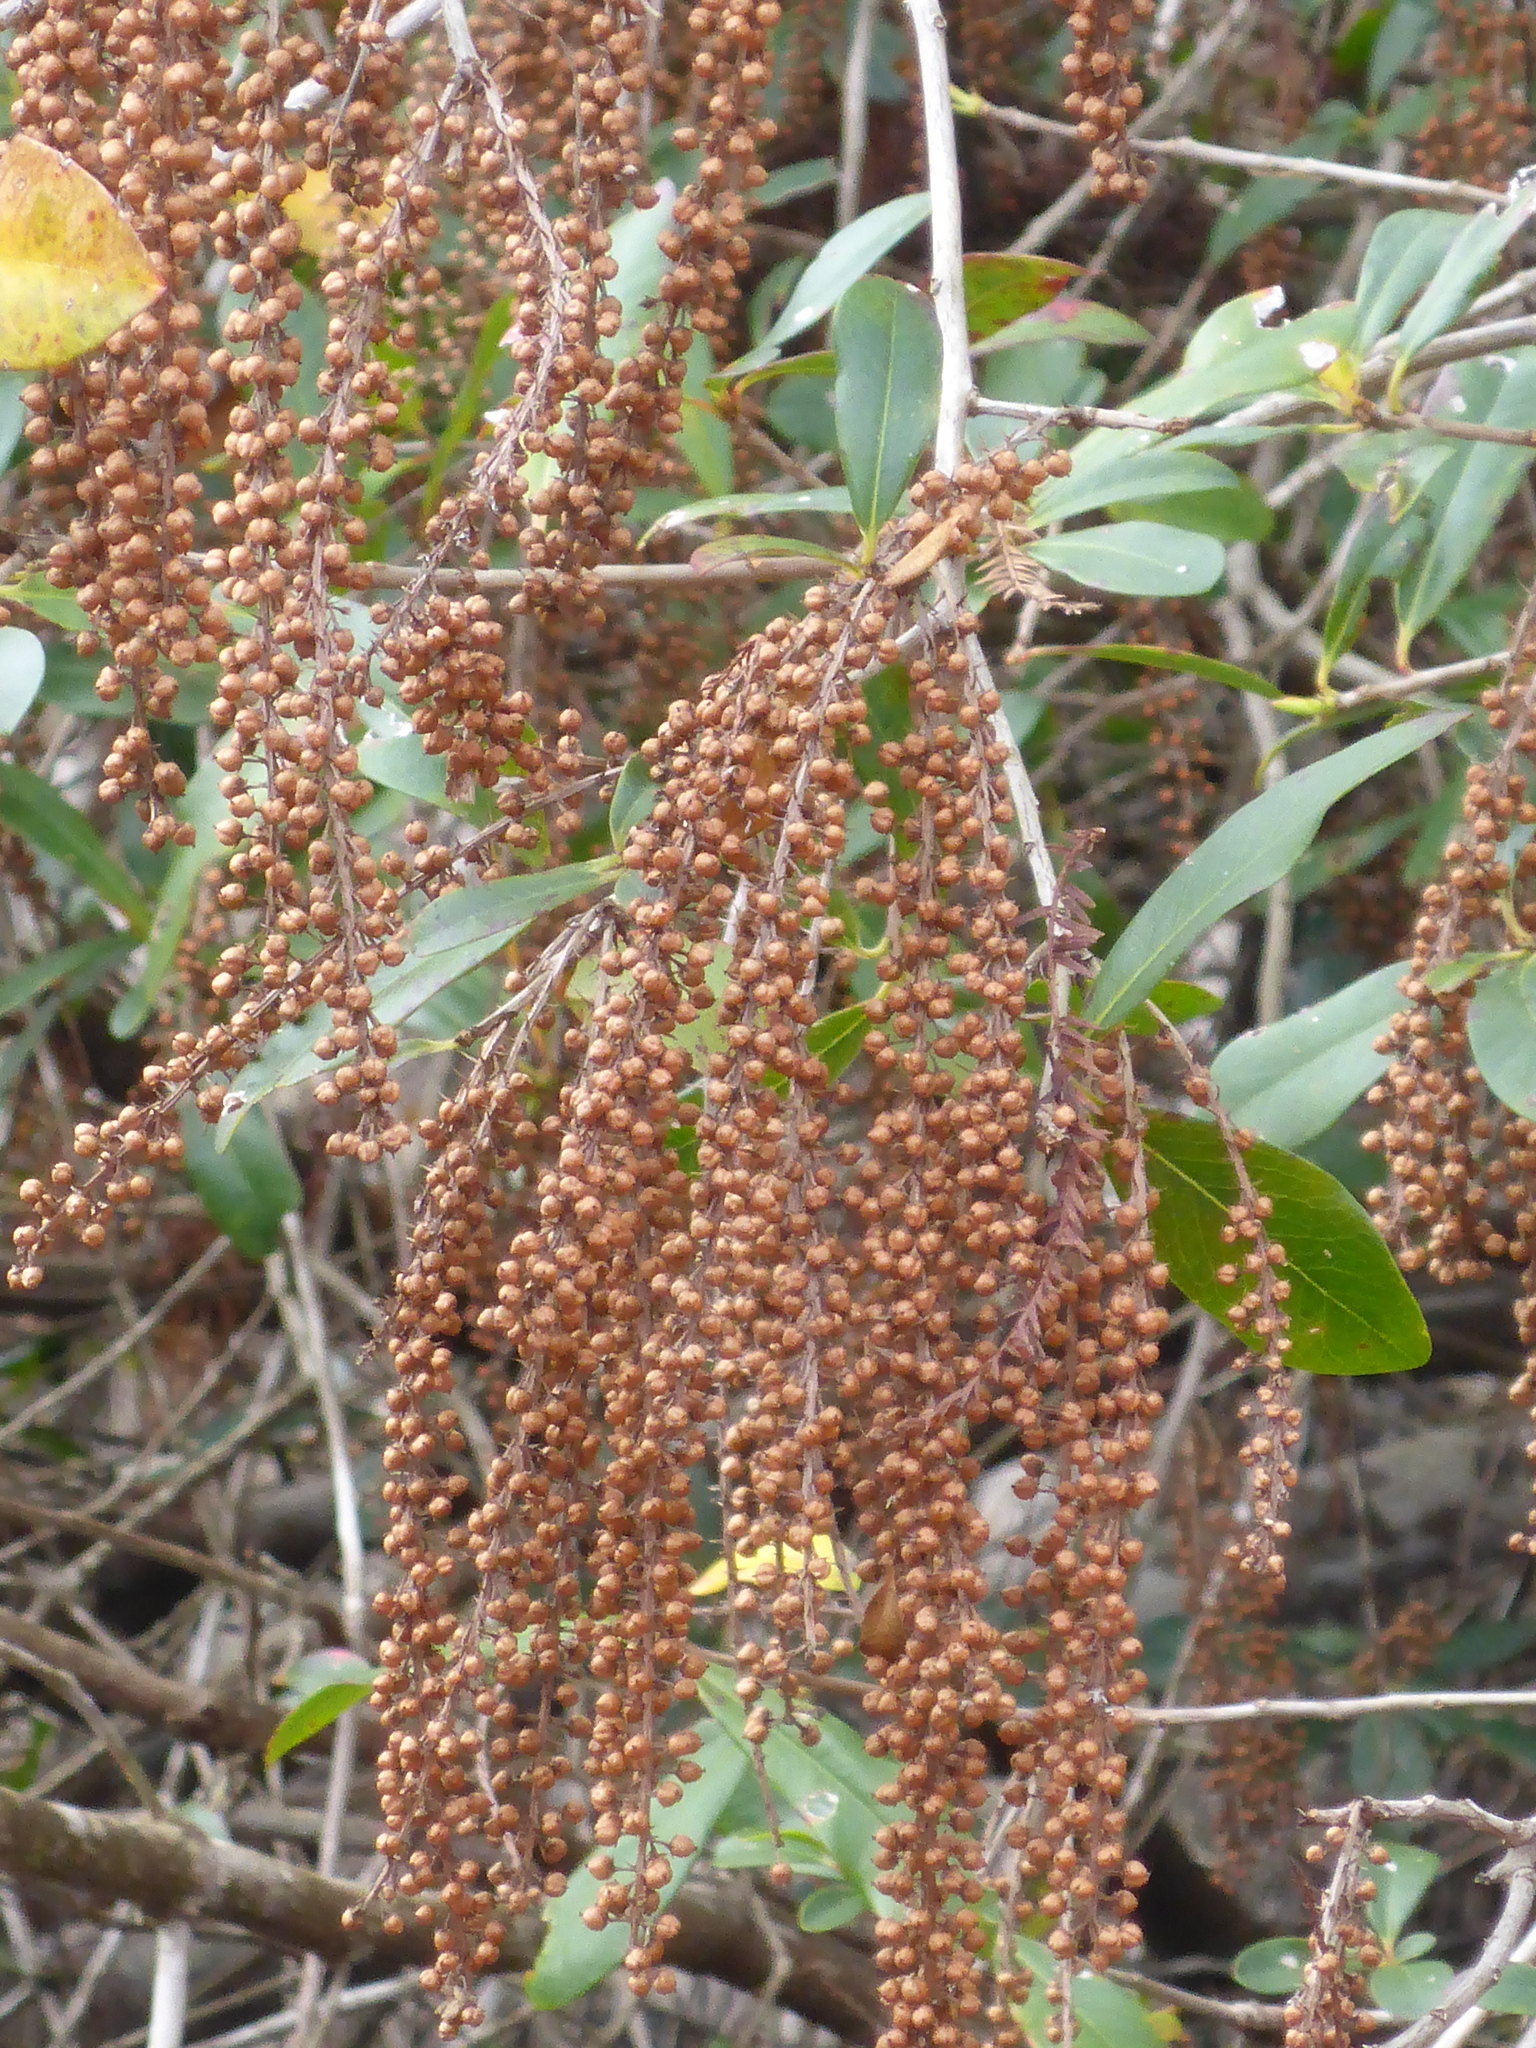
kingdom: Plantae
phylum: Tracheophyta
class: Magnoliopsida
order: Ericales
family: Cyrillaceae
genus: Cyrilla
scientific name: Cyrilla racemiflora
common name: Black titi
